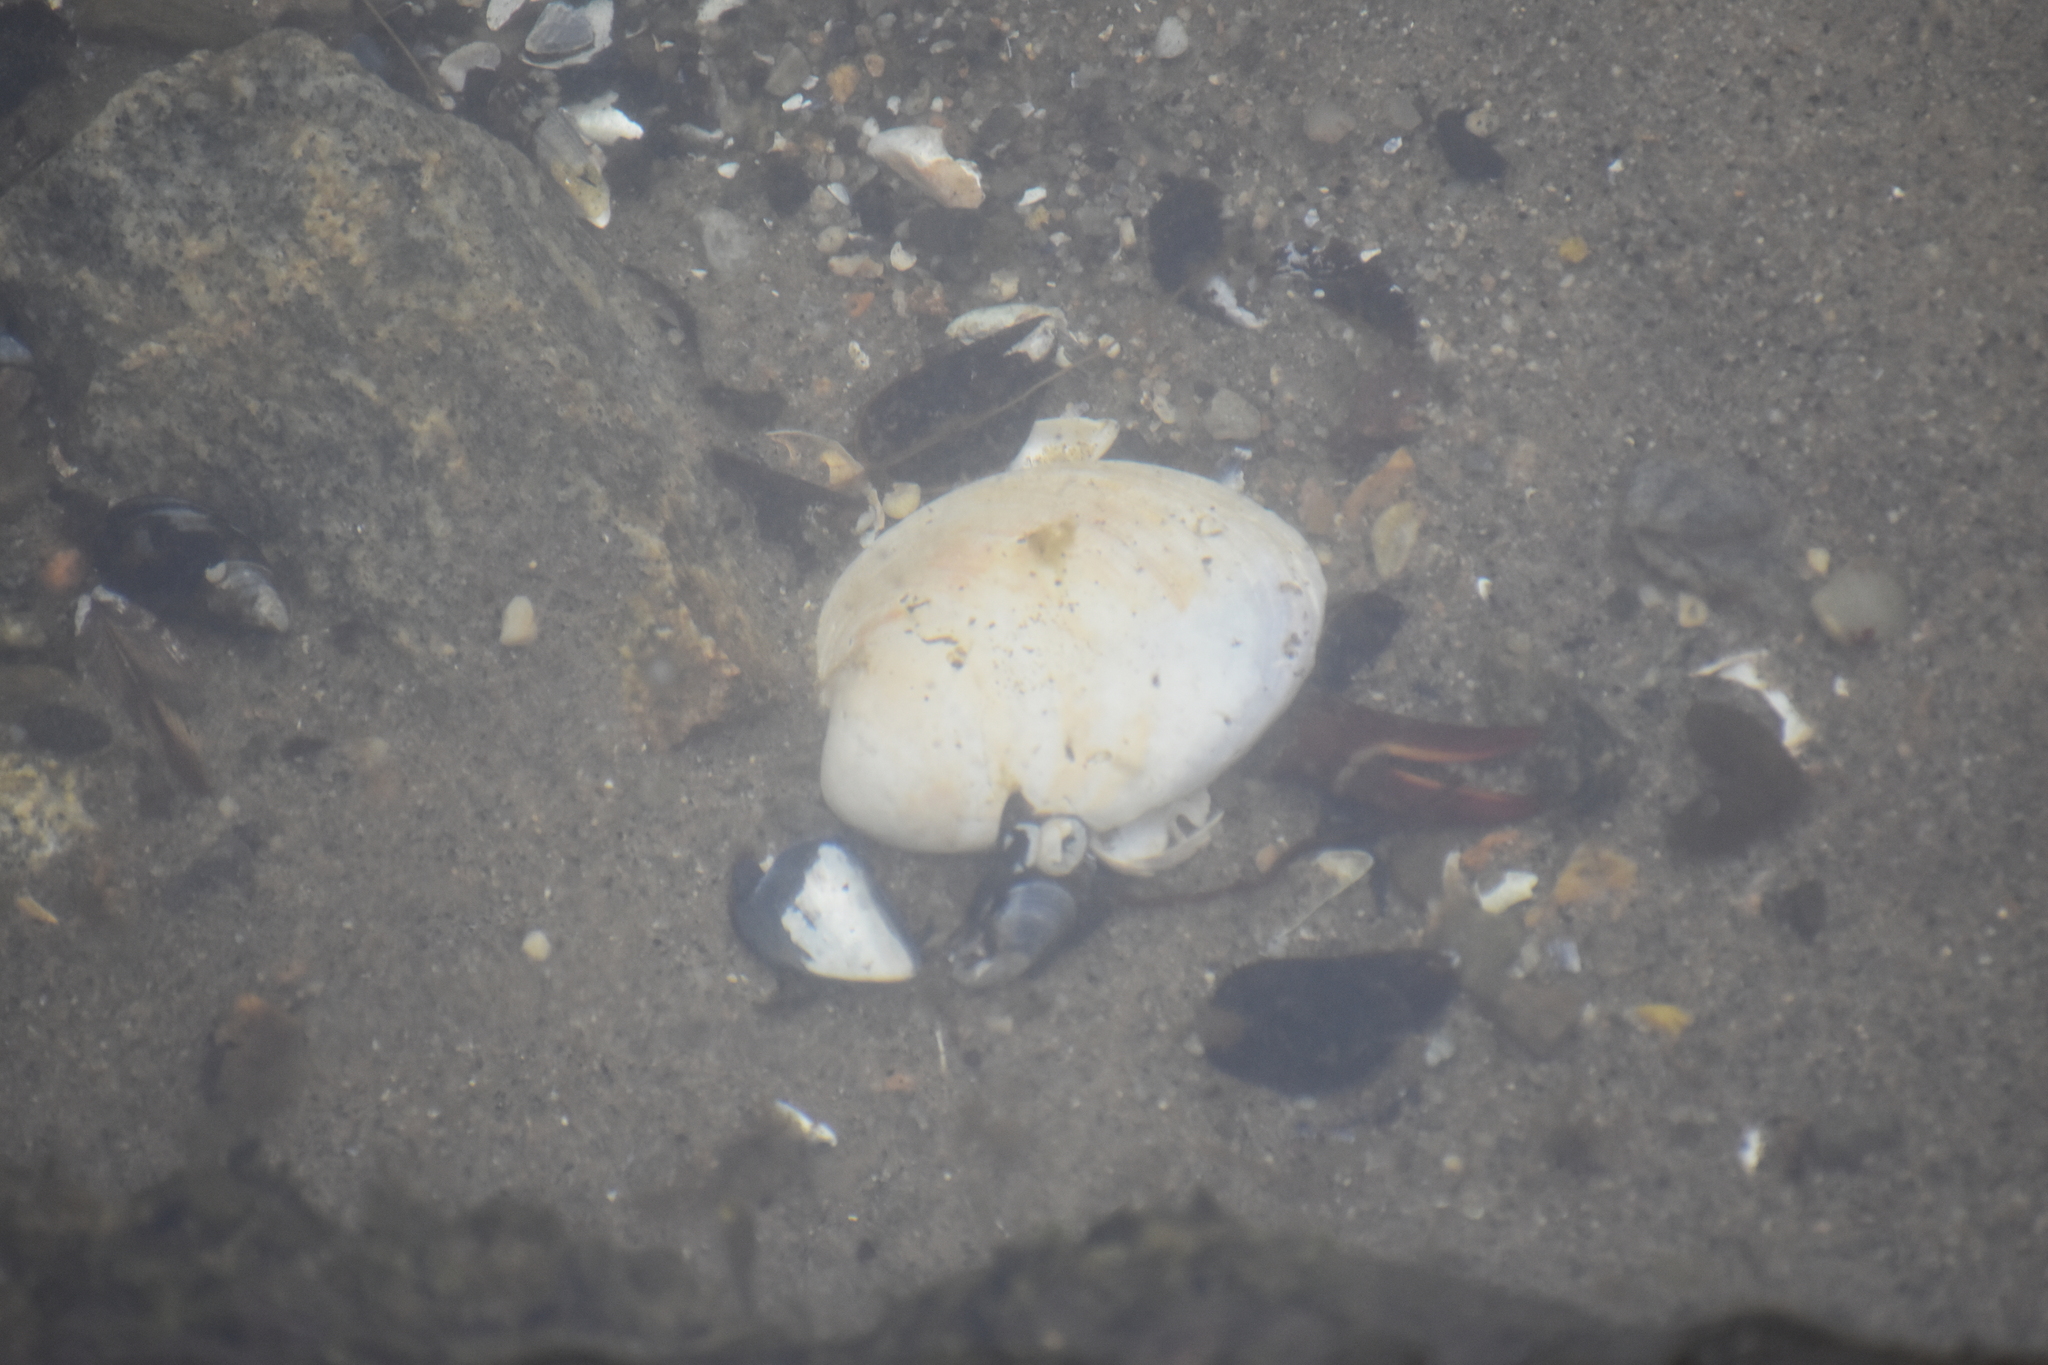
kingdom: Animalia
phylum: Mollusca
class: Bivalvia
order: Venerida
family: Veneridae
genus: Mercenaria
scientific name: Mercenaria mercenaria
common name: American hard-shelled clam
